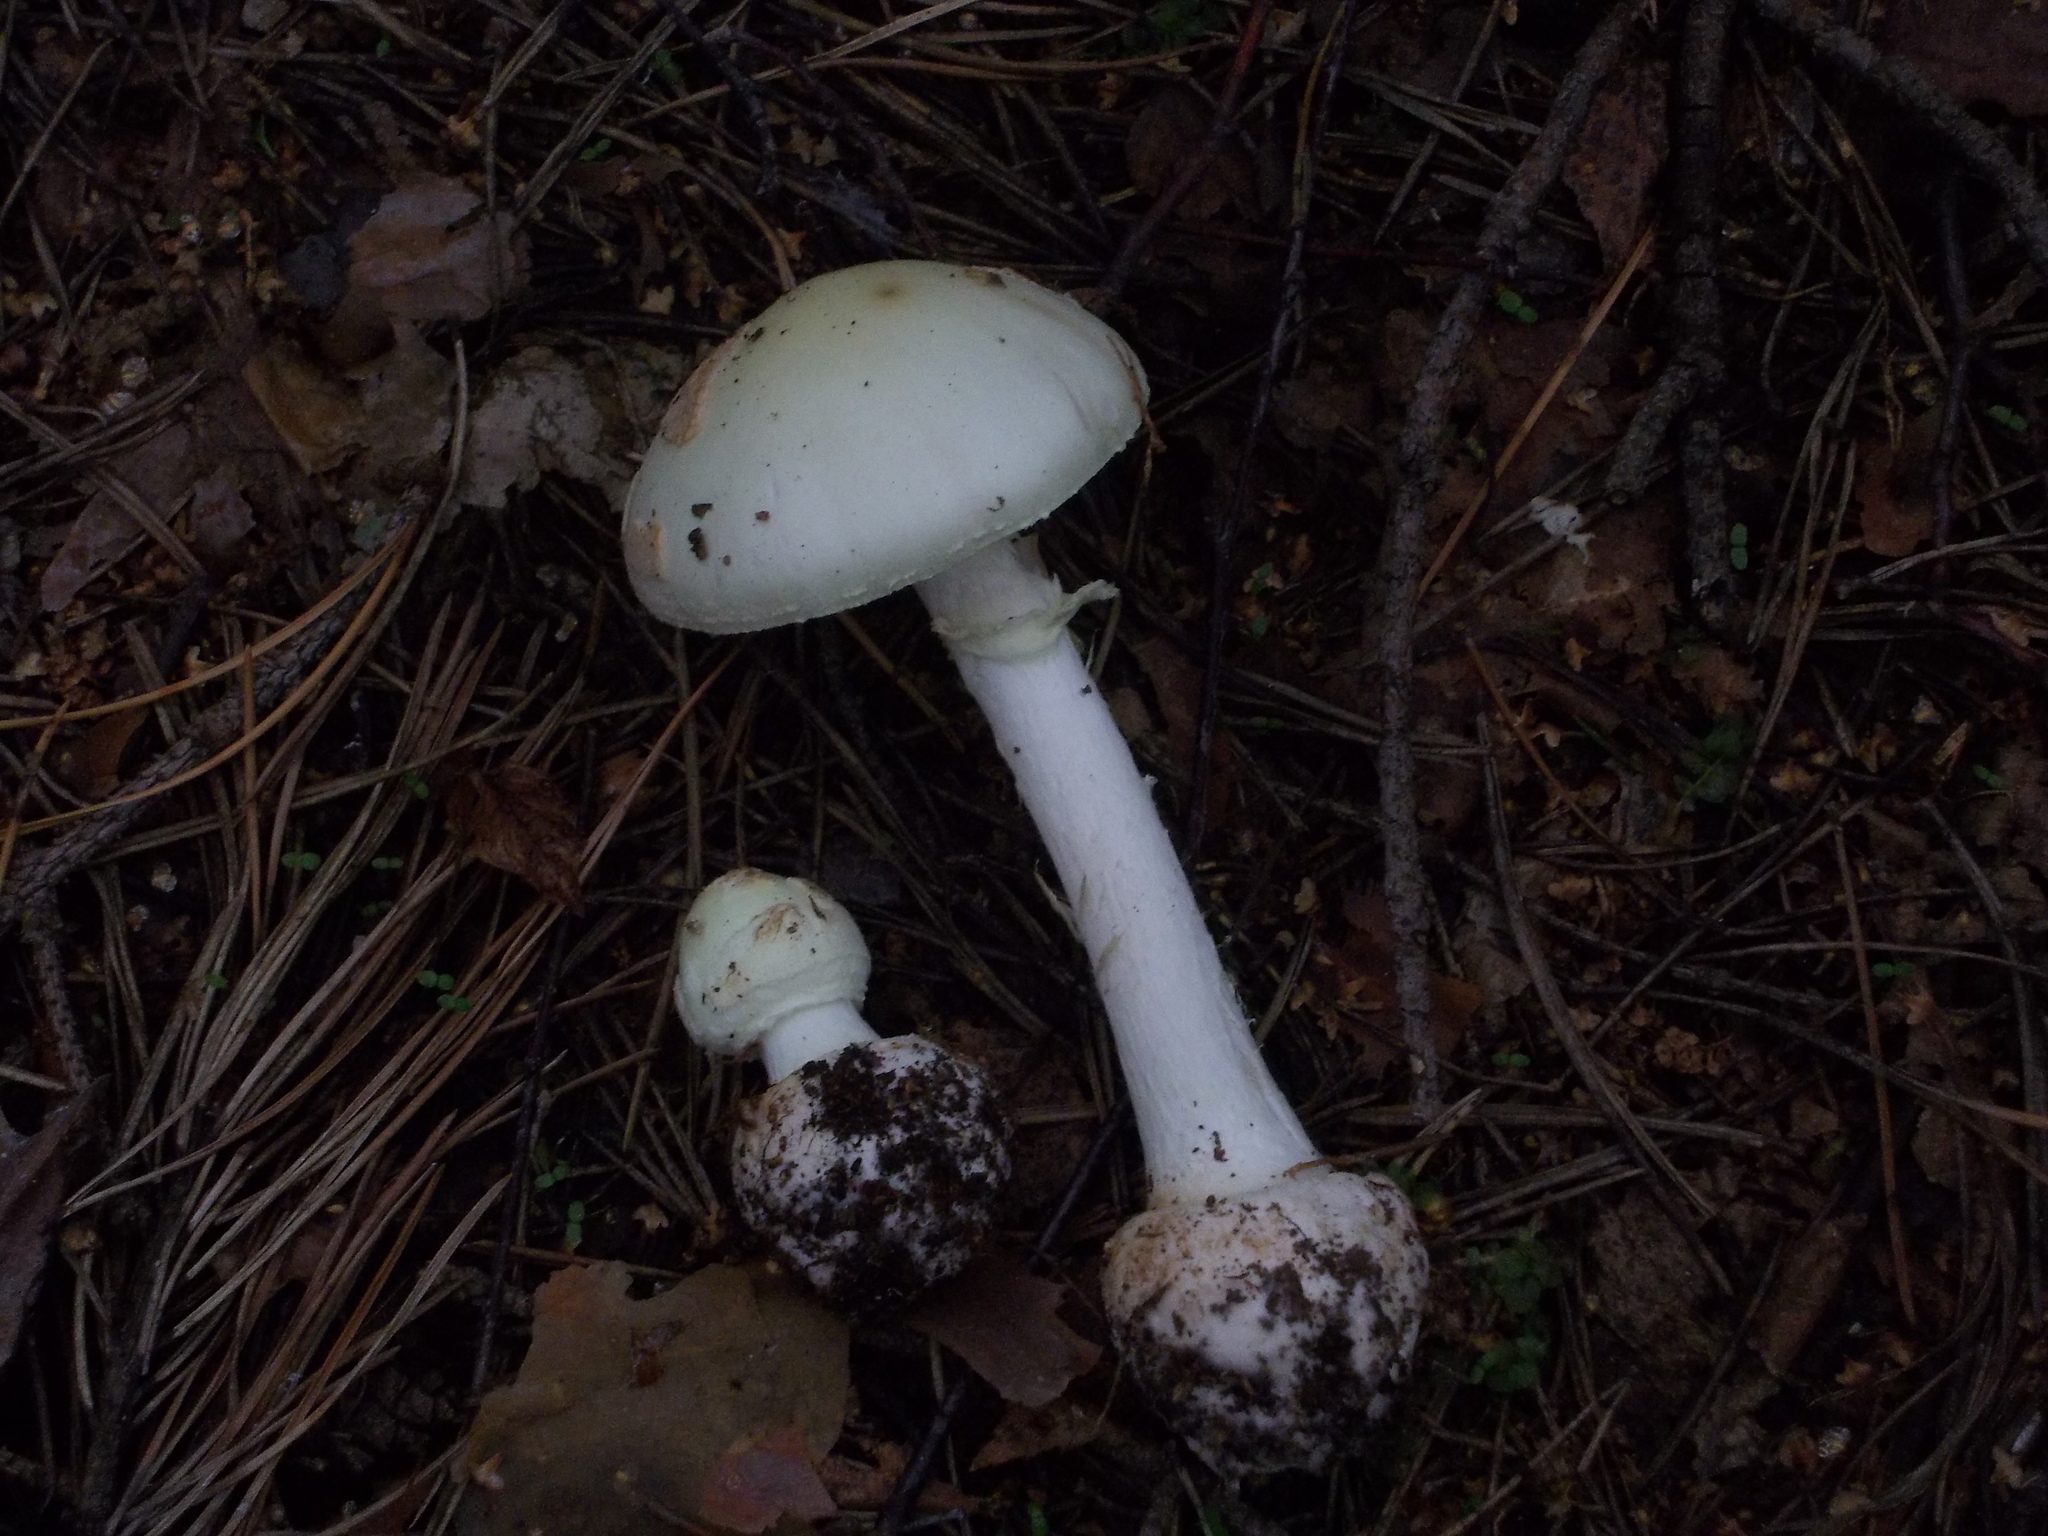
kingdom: Fungi
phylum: Basidiomycota
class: Agaricomycetes
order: Agaricales
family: Amanitaceae
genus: Amanita
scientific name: Amanita citrina
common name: False death-cap
